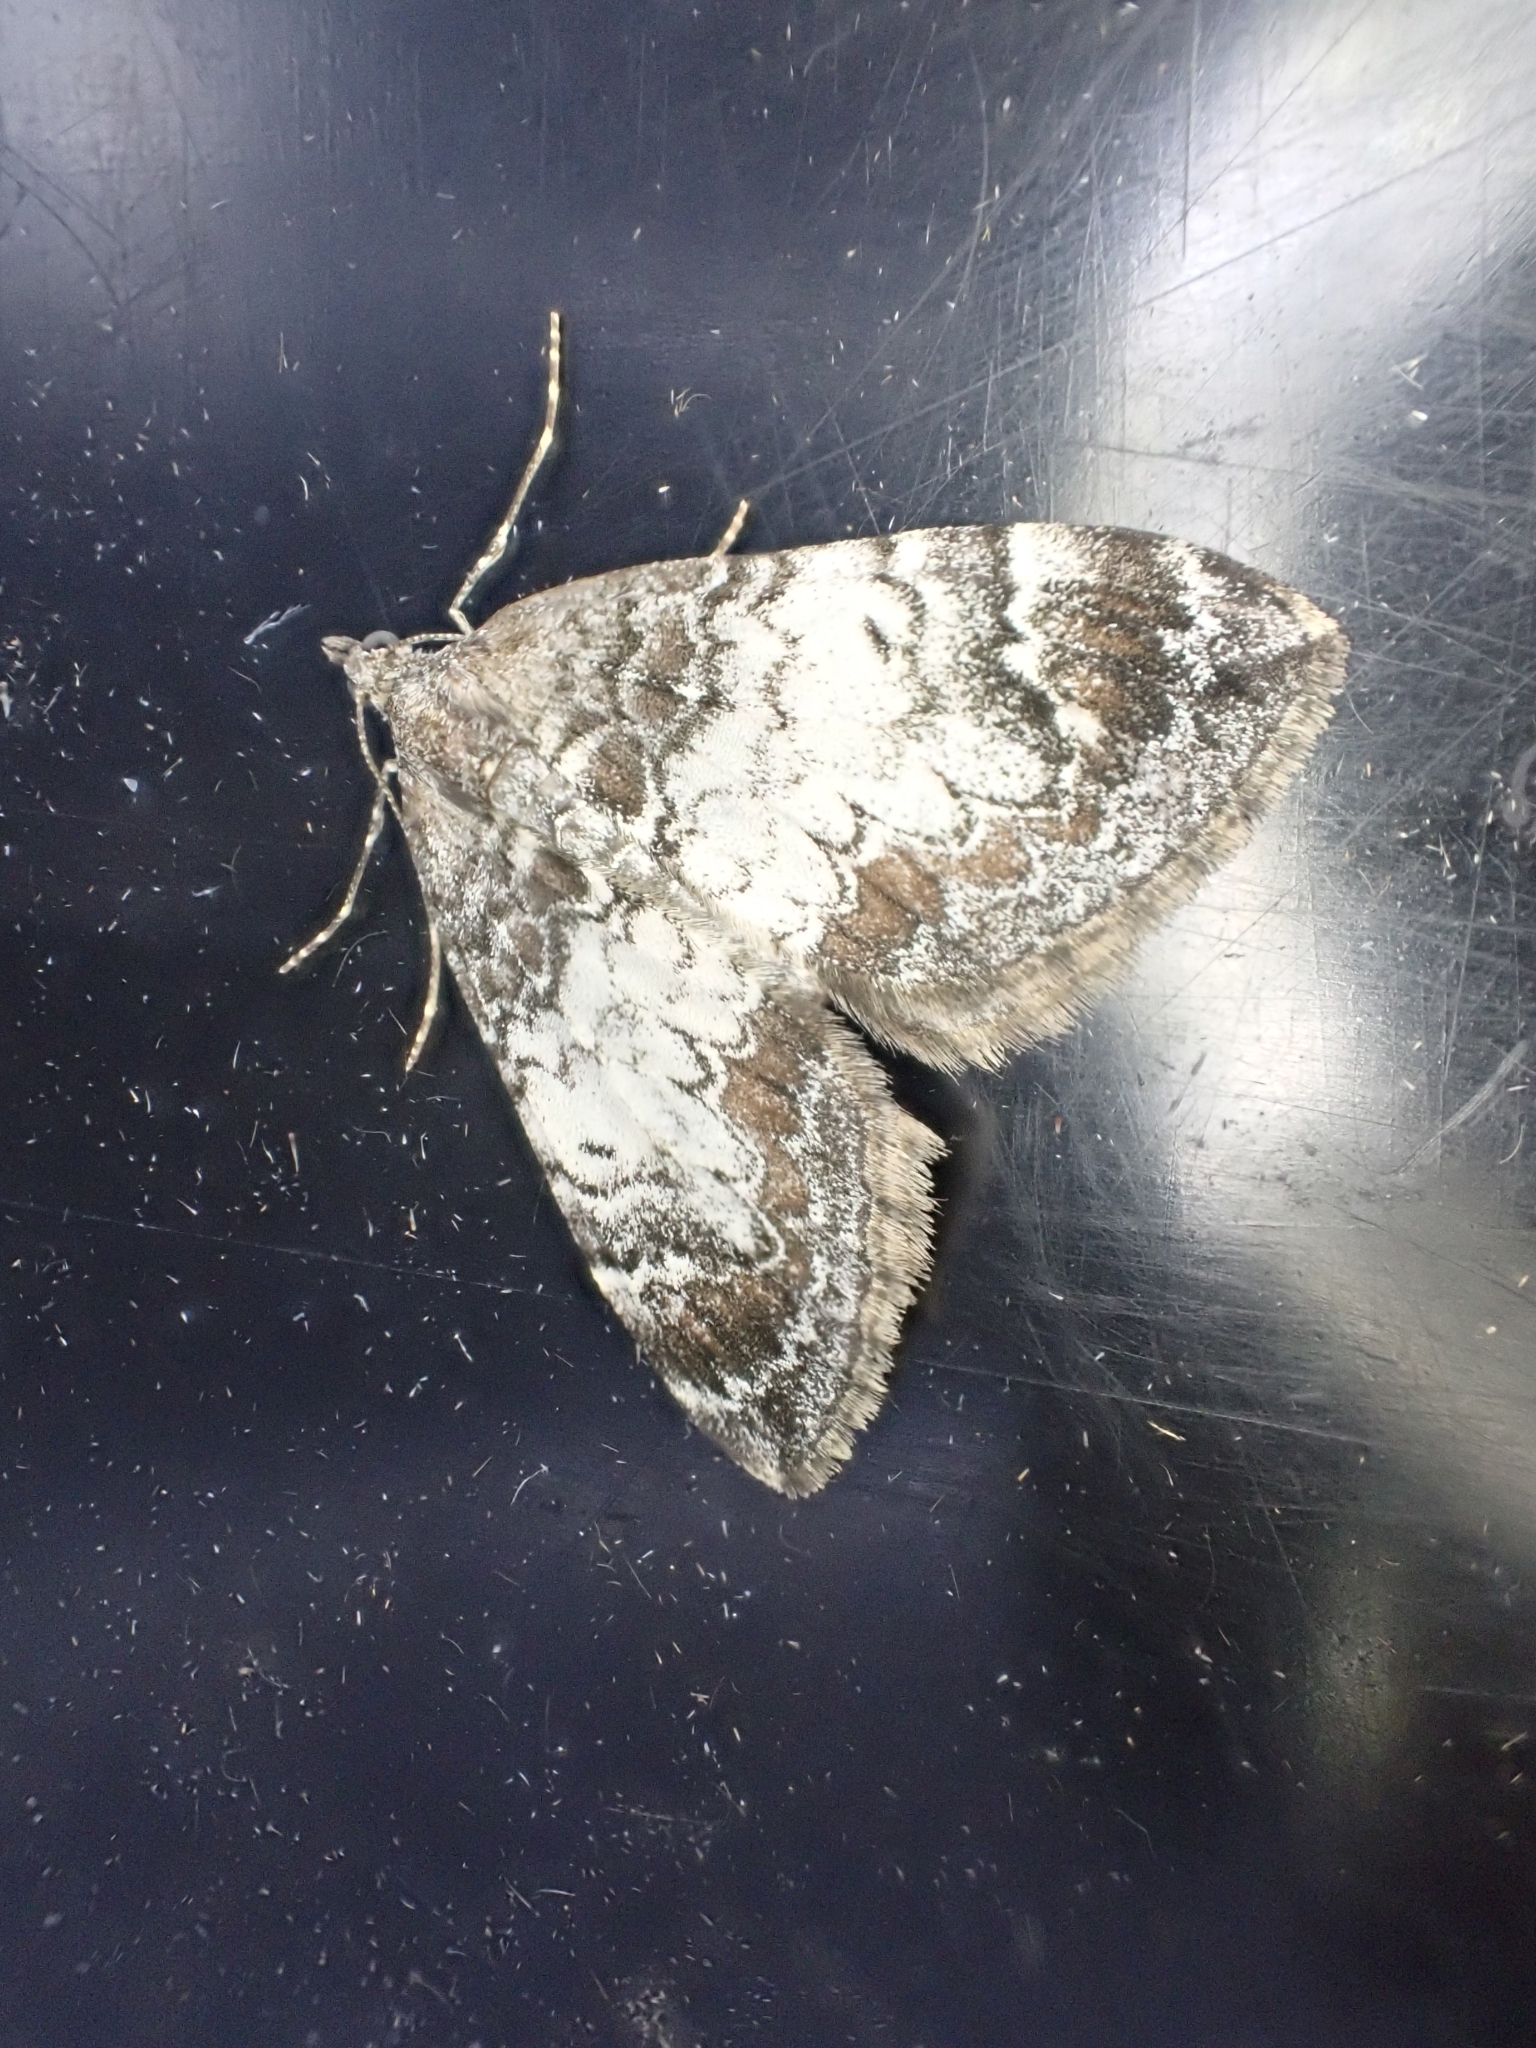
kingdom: Animalia
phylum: Arthropoda
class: Insecta
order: Lepidoptera
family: Geometridae
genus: Dysstroma
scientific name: Dysstroma truncata
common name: Common marbled carpet
